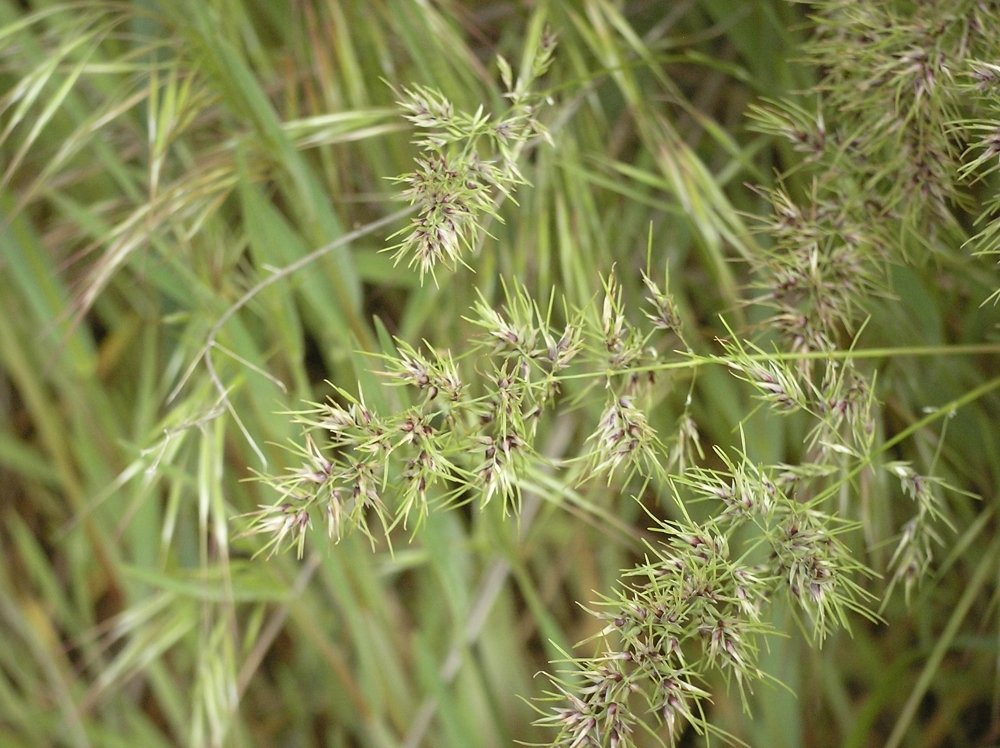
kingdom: Plantae
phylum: Tracheophyta
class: Liliopsida
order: Poales
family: Poaceae
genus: Poa
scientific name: Poa bulbosa
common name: Bulbous bluegrass
